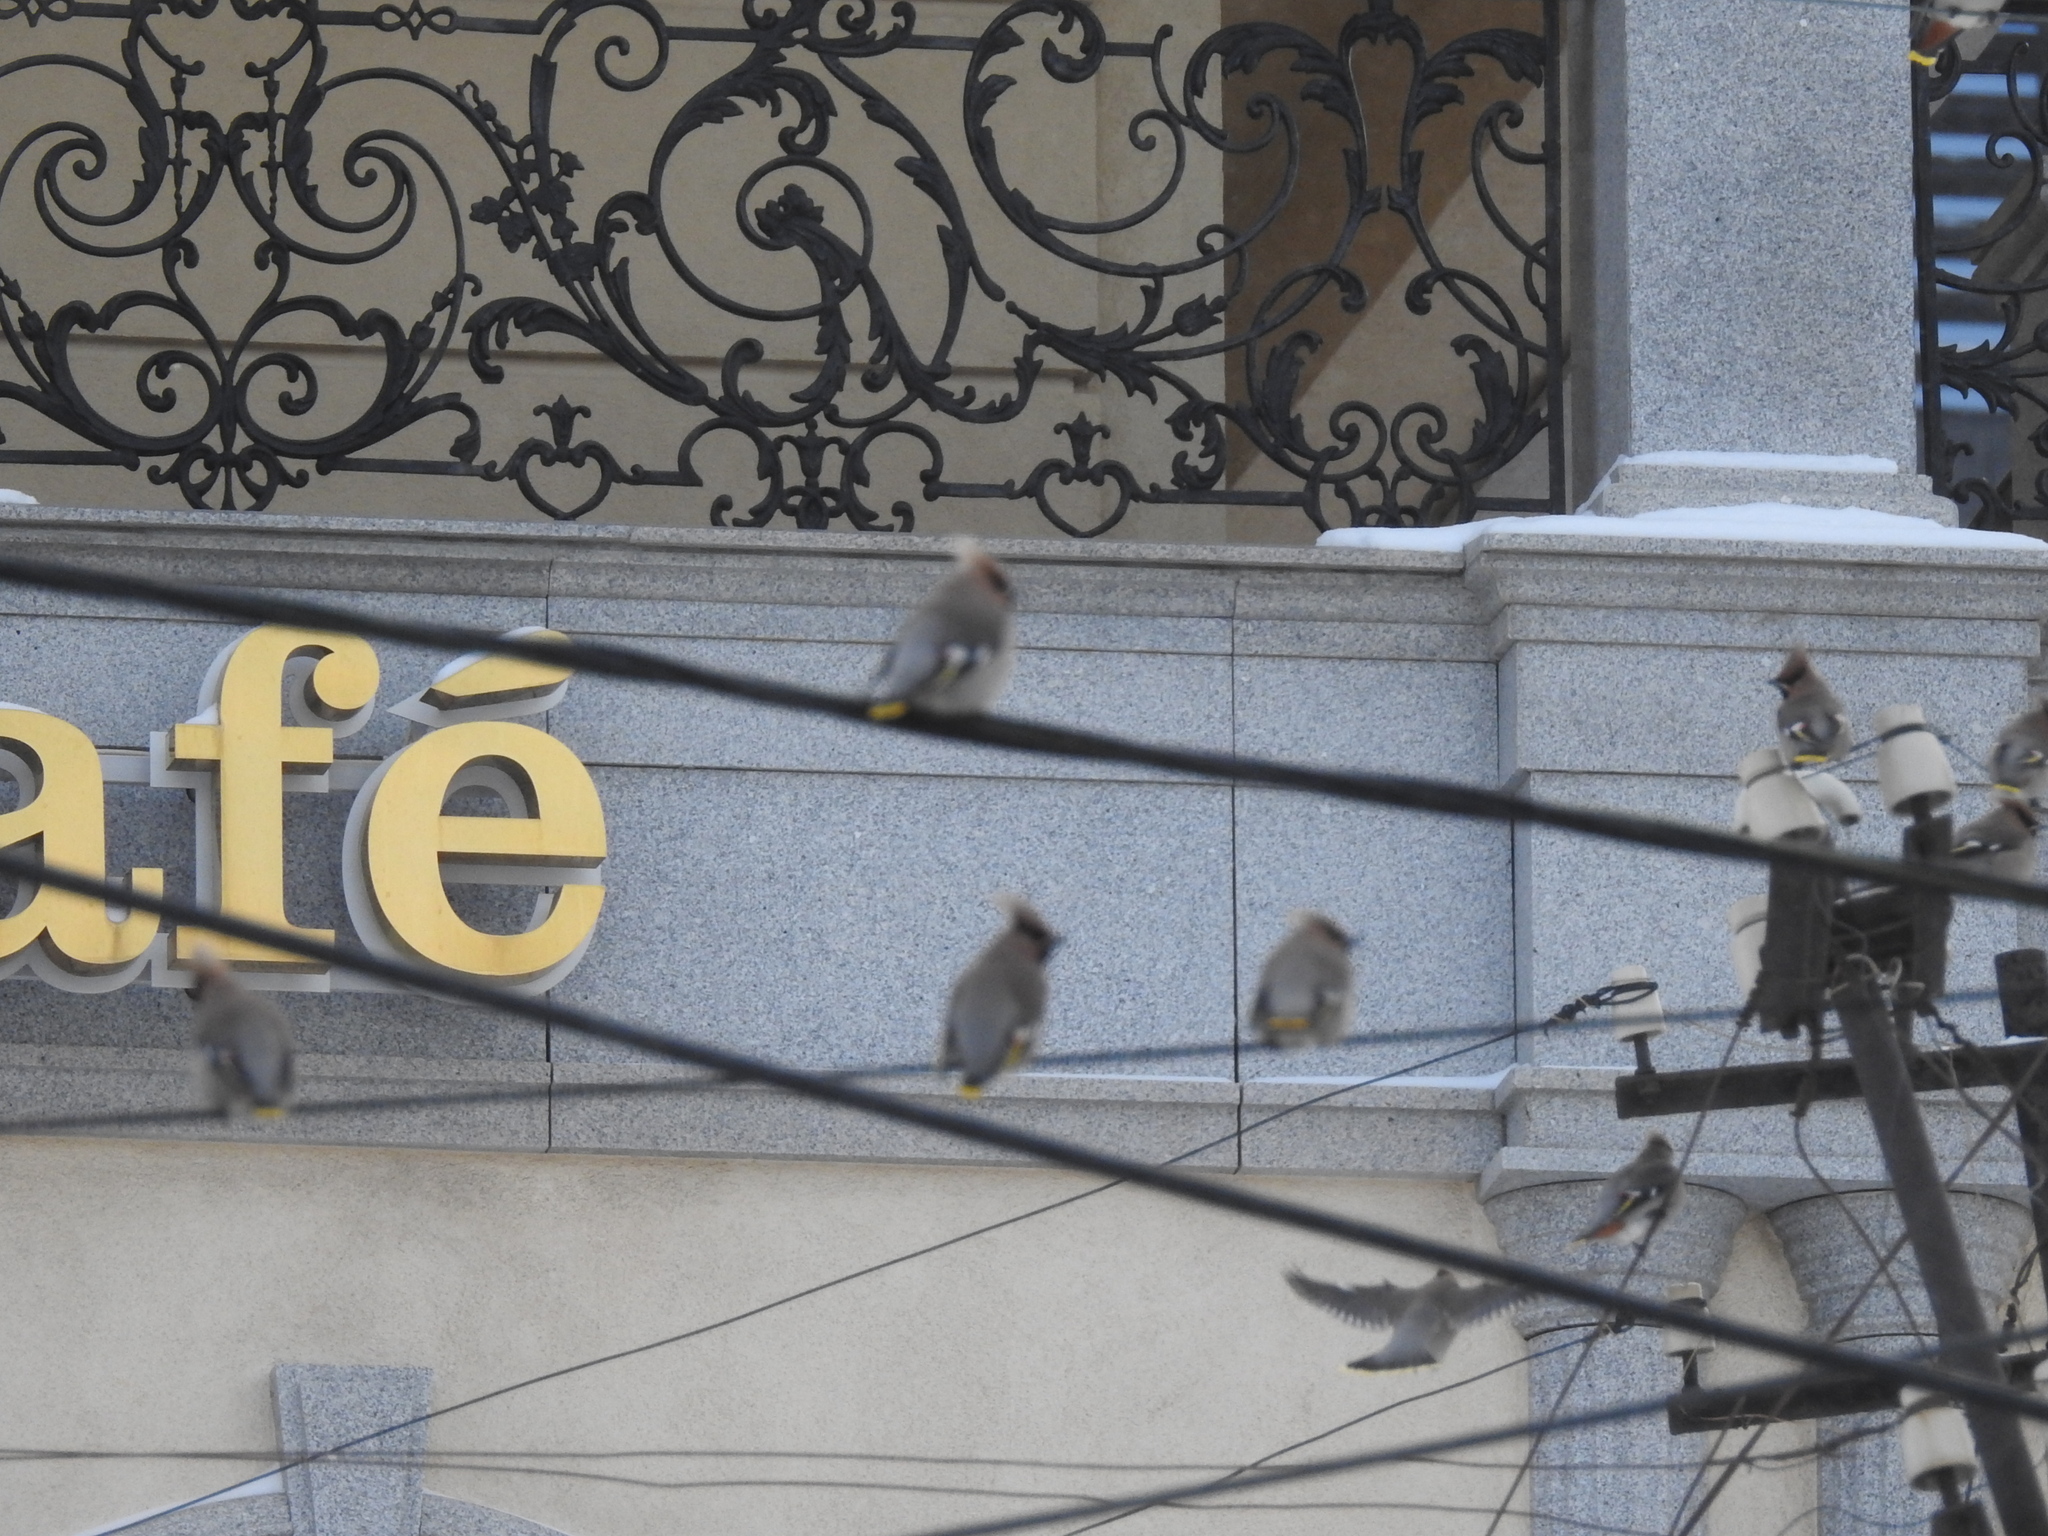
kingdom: Animalia
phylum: Chordata
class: Aves
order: Passeriformes
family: Bombycillidae
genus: Bombycilla
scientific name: Bombycilla garrulus
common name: Bohemian waxwing
